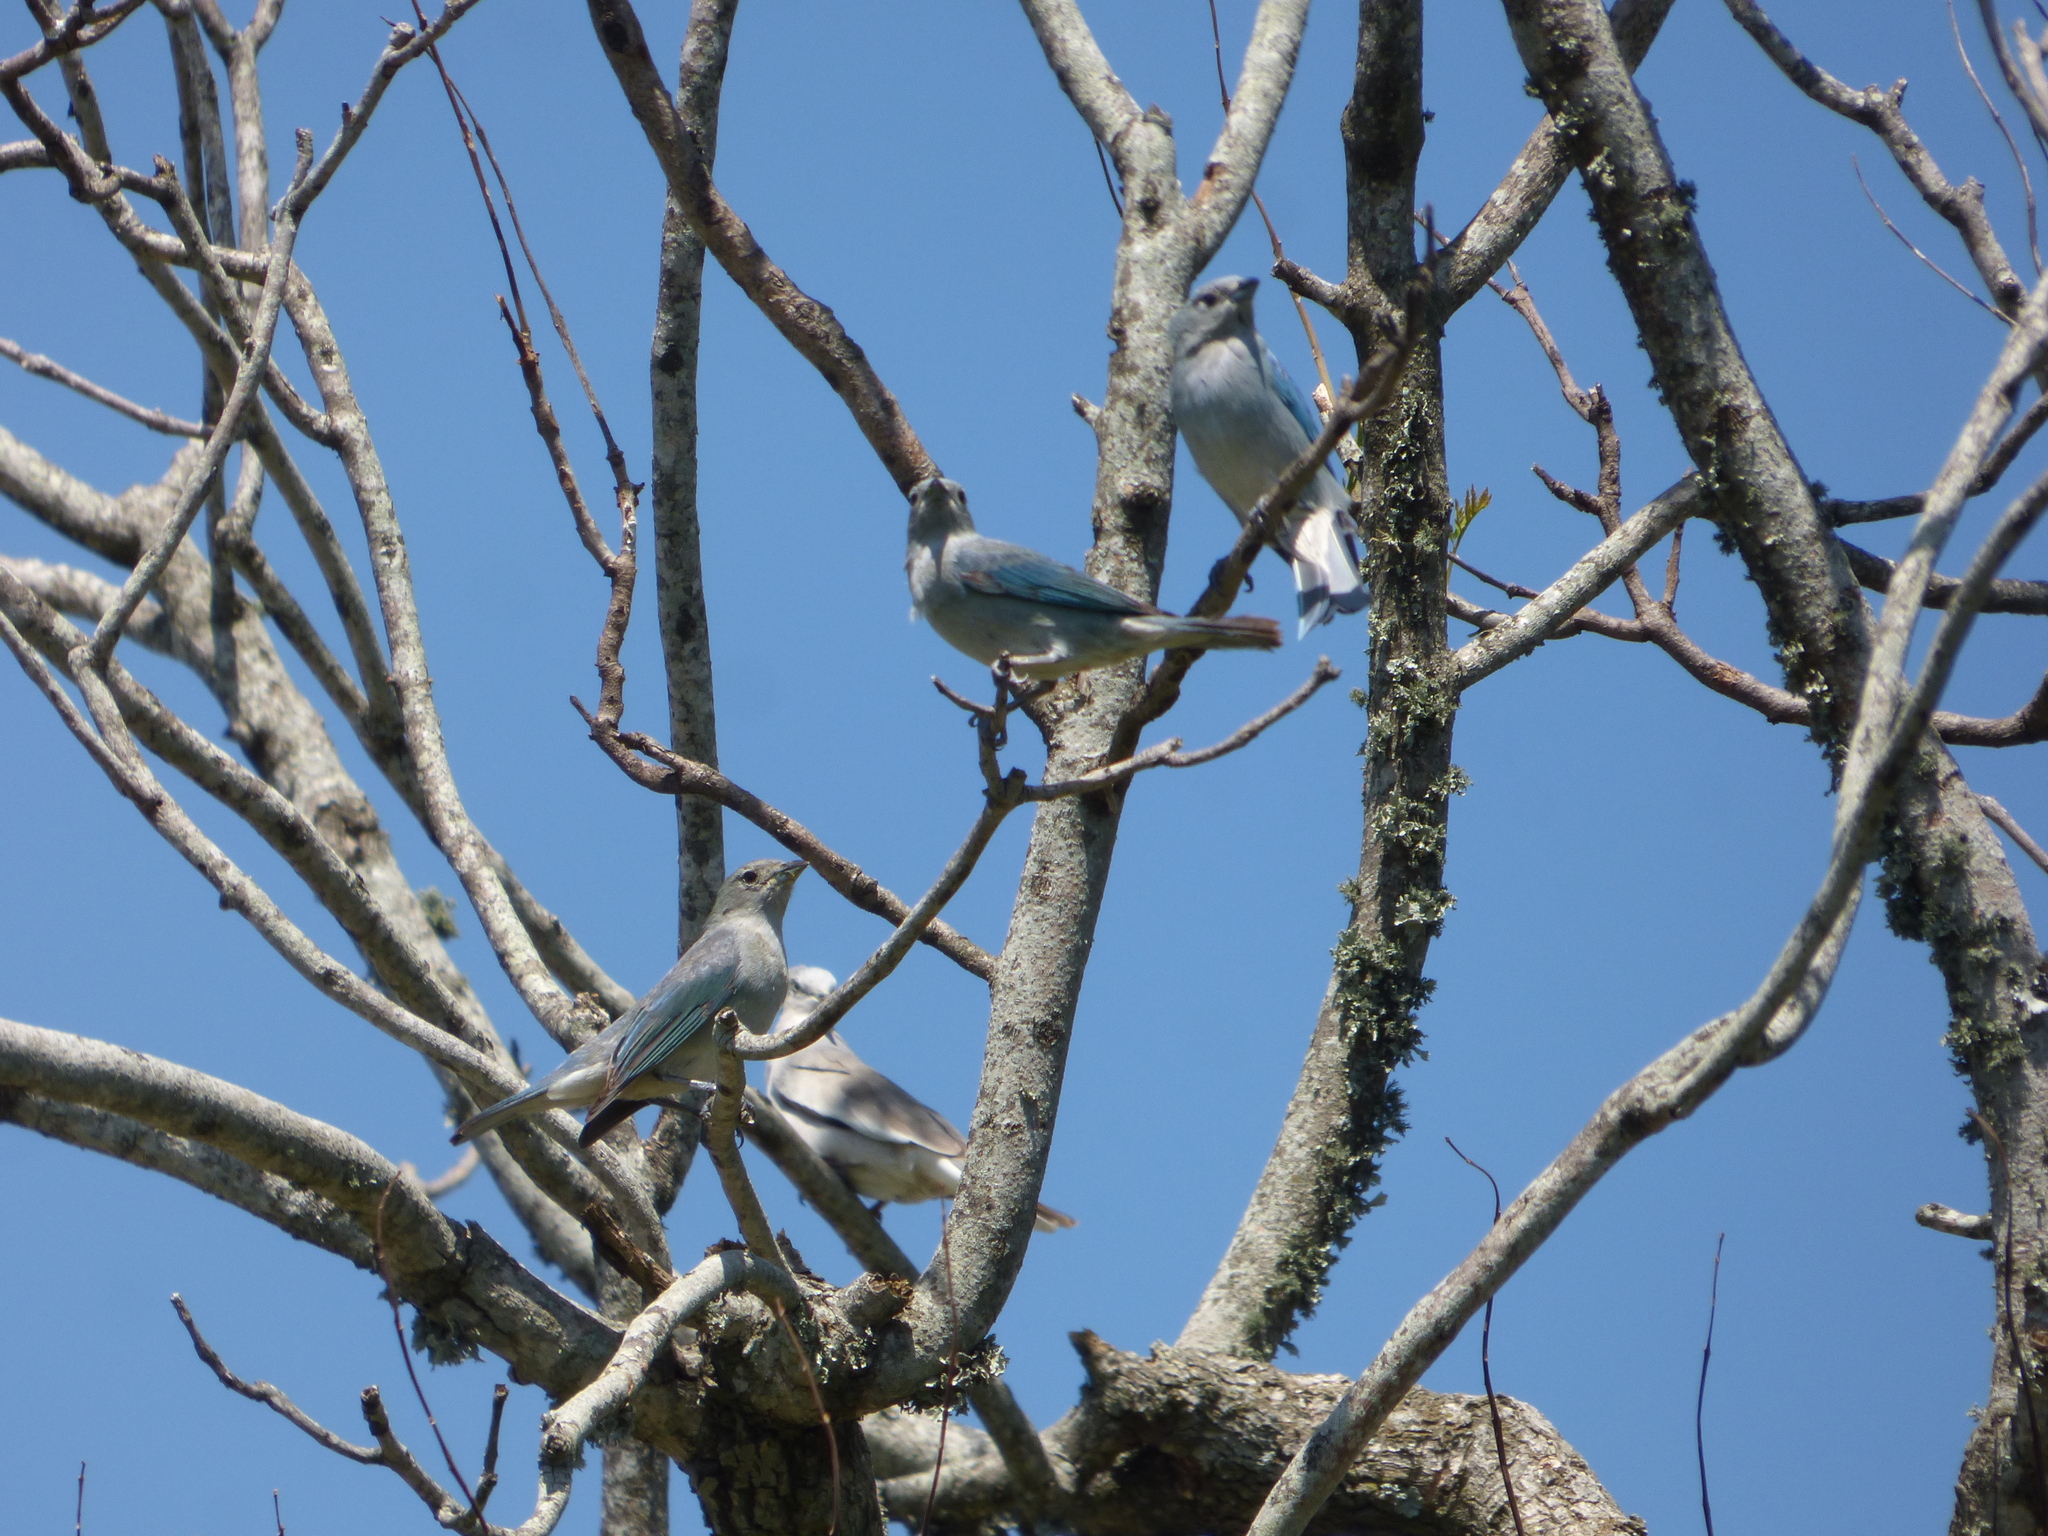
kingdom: Animalia
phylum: Chordata
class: Aves
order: Passeriformes
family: Thraupidae
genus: Thraupis
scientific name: Thraupis sayaca
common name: Sayaca tanager
